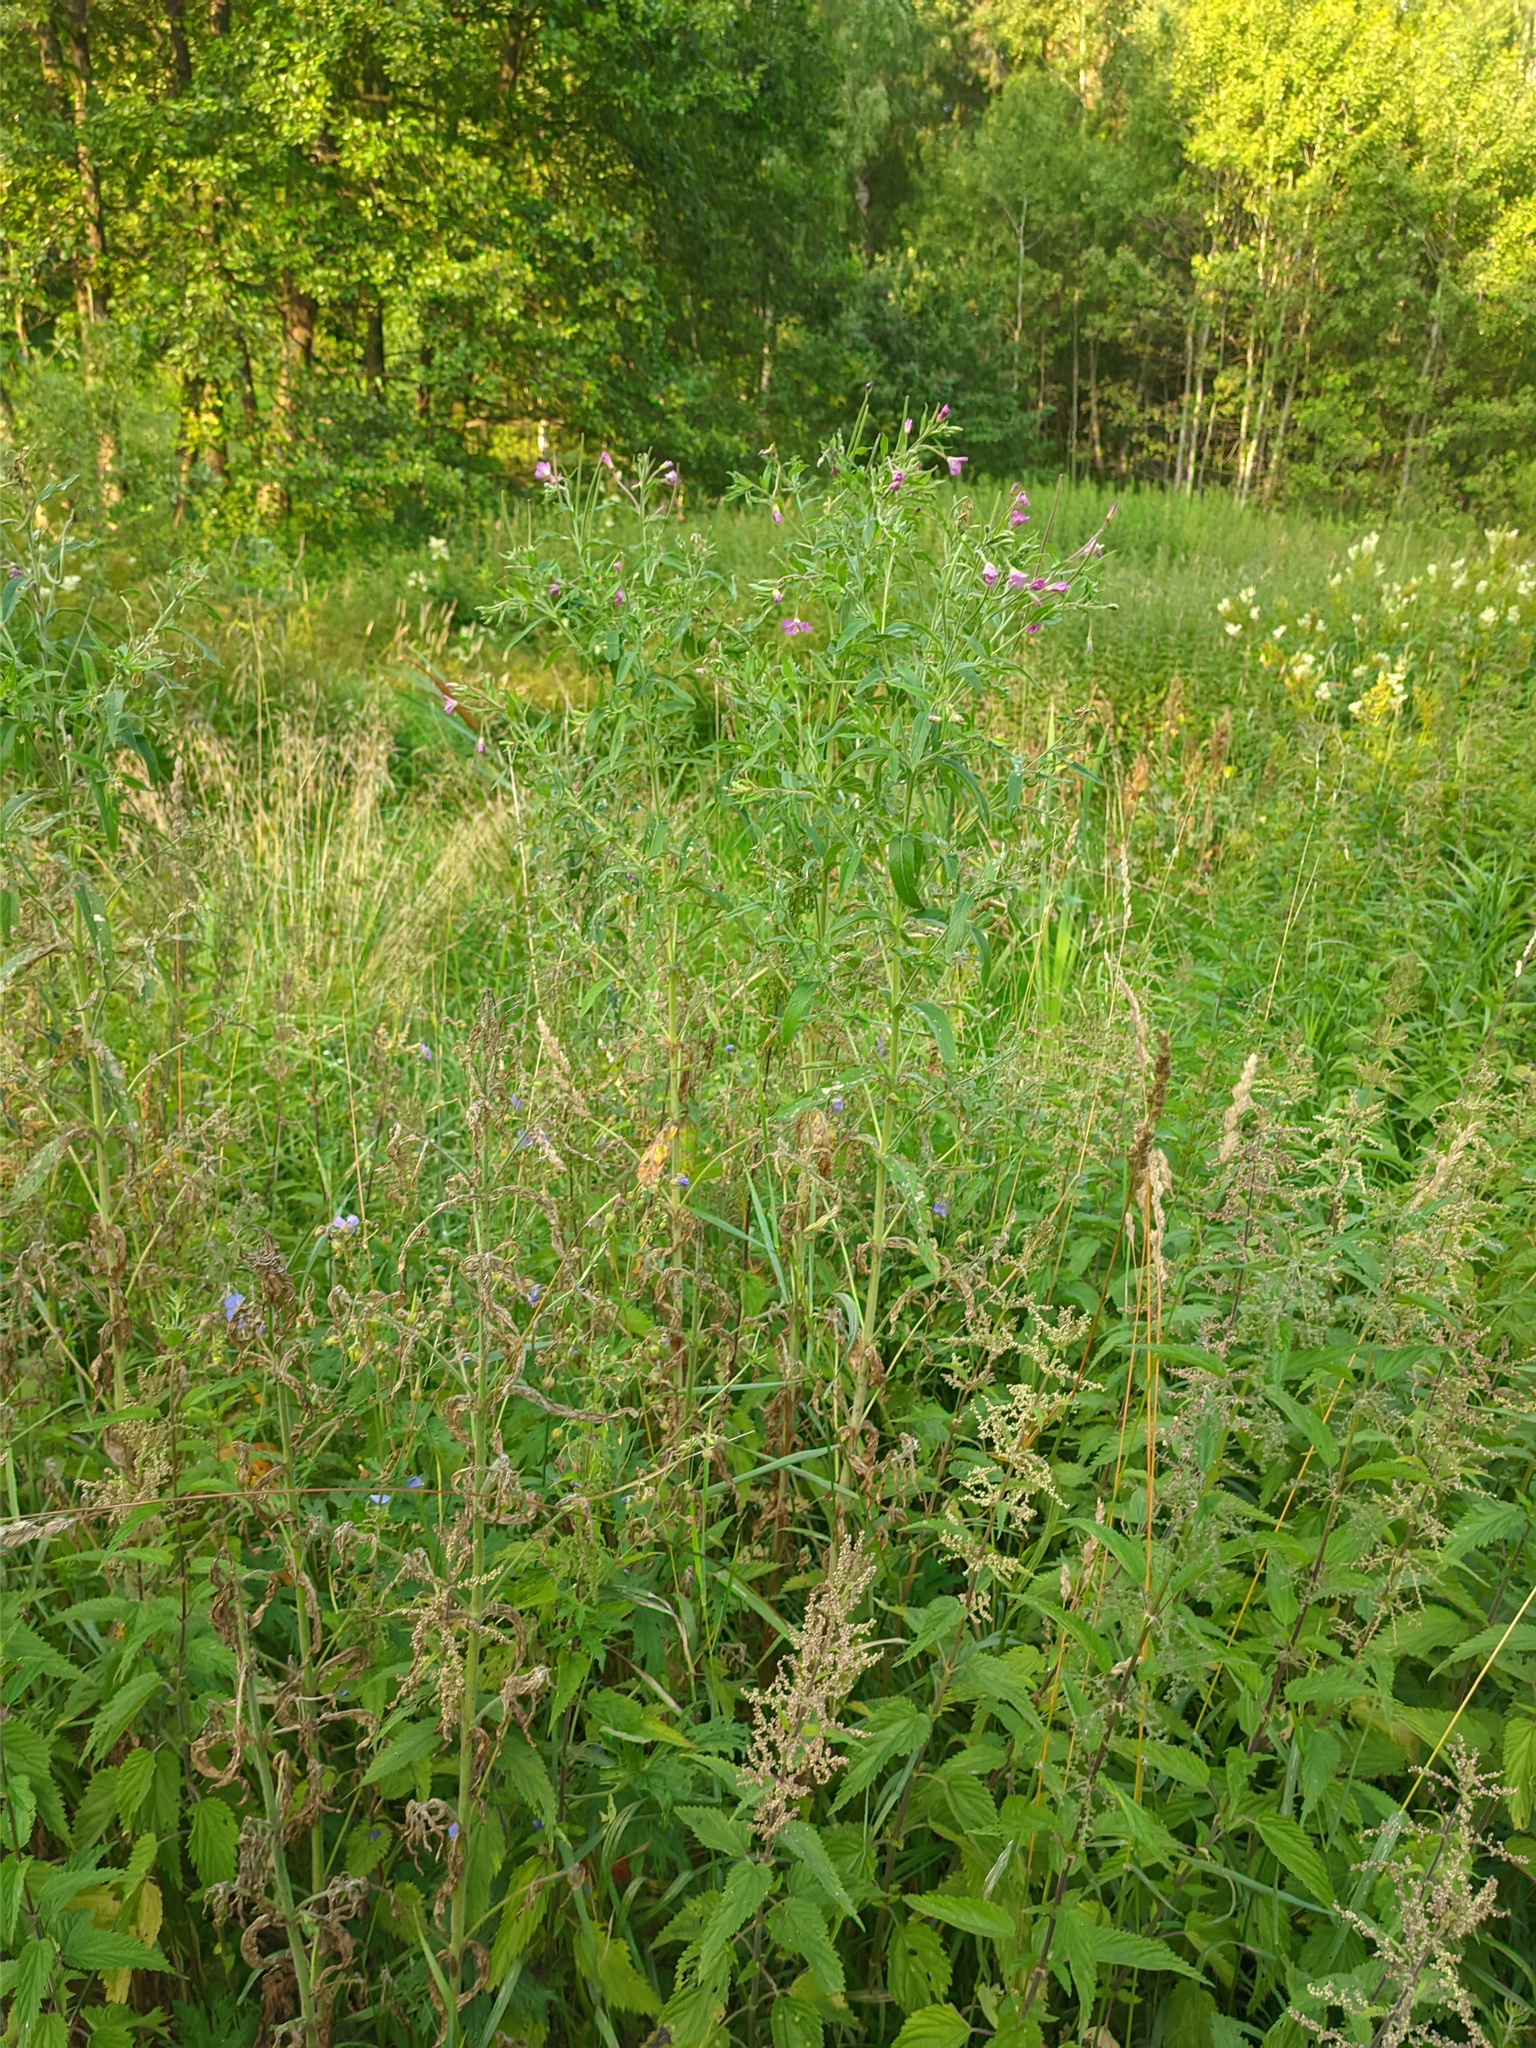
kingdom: Plantae
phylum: Tracheophyta
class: Magnoliopsida
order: Myrtales
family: Onagraceae
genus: Epilobium
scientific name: Epilobium hirsutum
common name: Great willowherb
